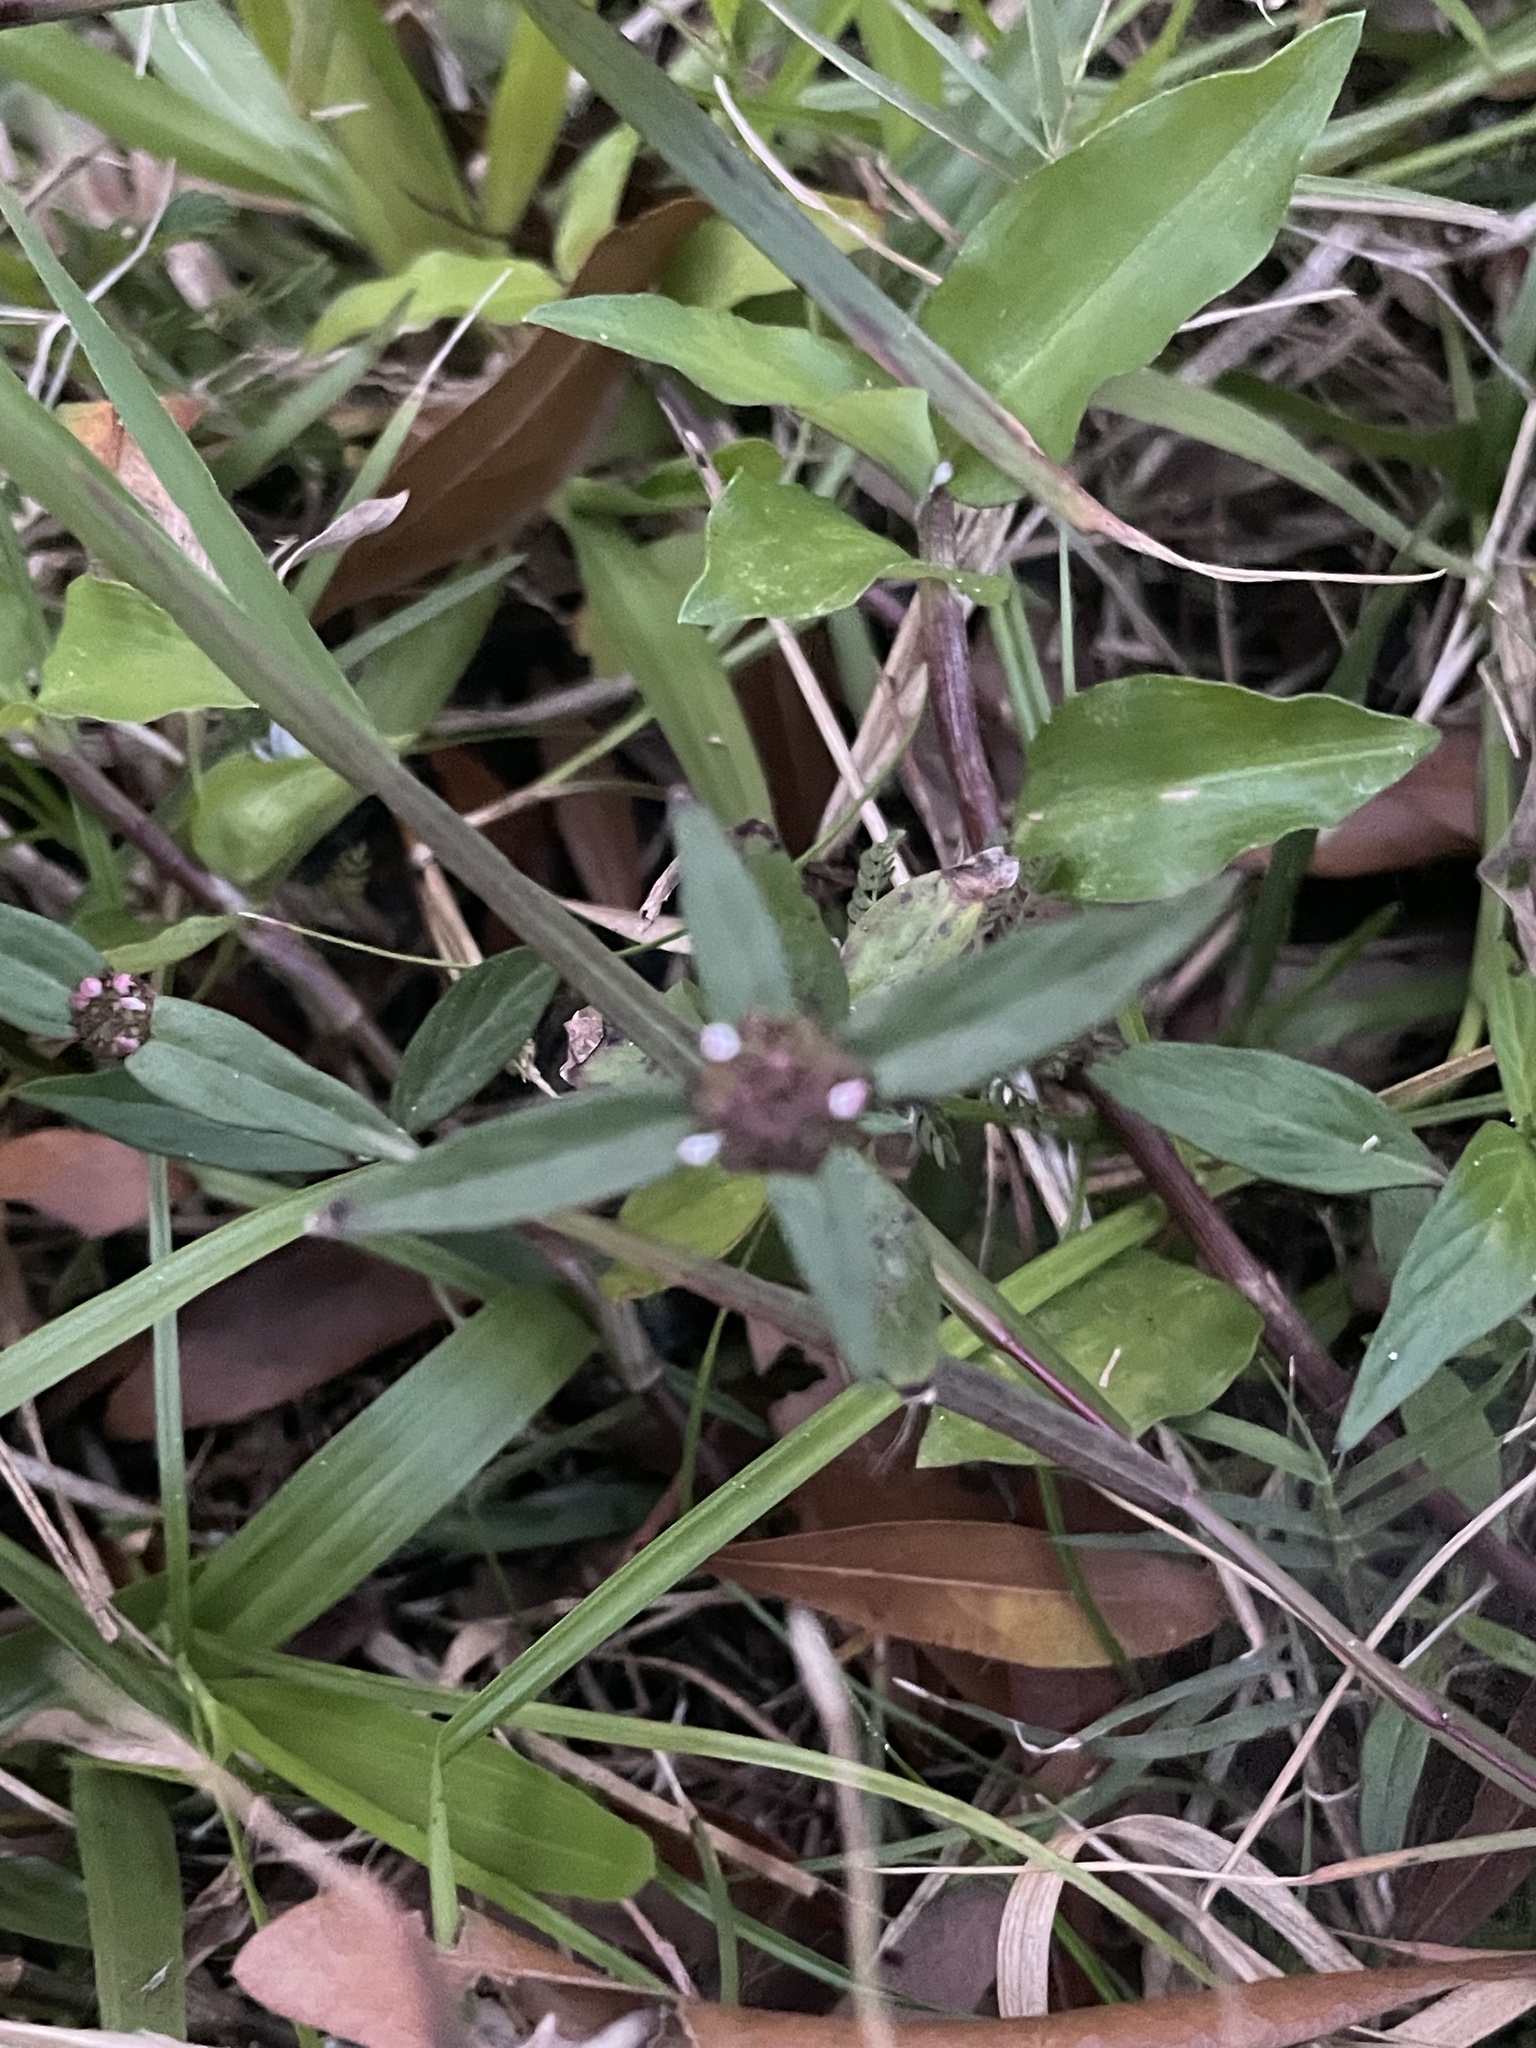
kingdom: Plantae
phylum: Tracheophyta
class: Magnoliopsida
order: Gentianales
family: Rubiaceae
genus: Spermacoce
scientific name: Spermacoce remota
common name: Woodland false buttonweed
